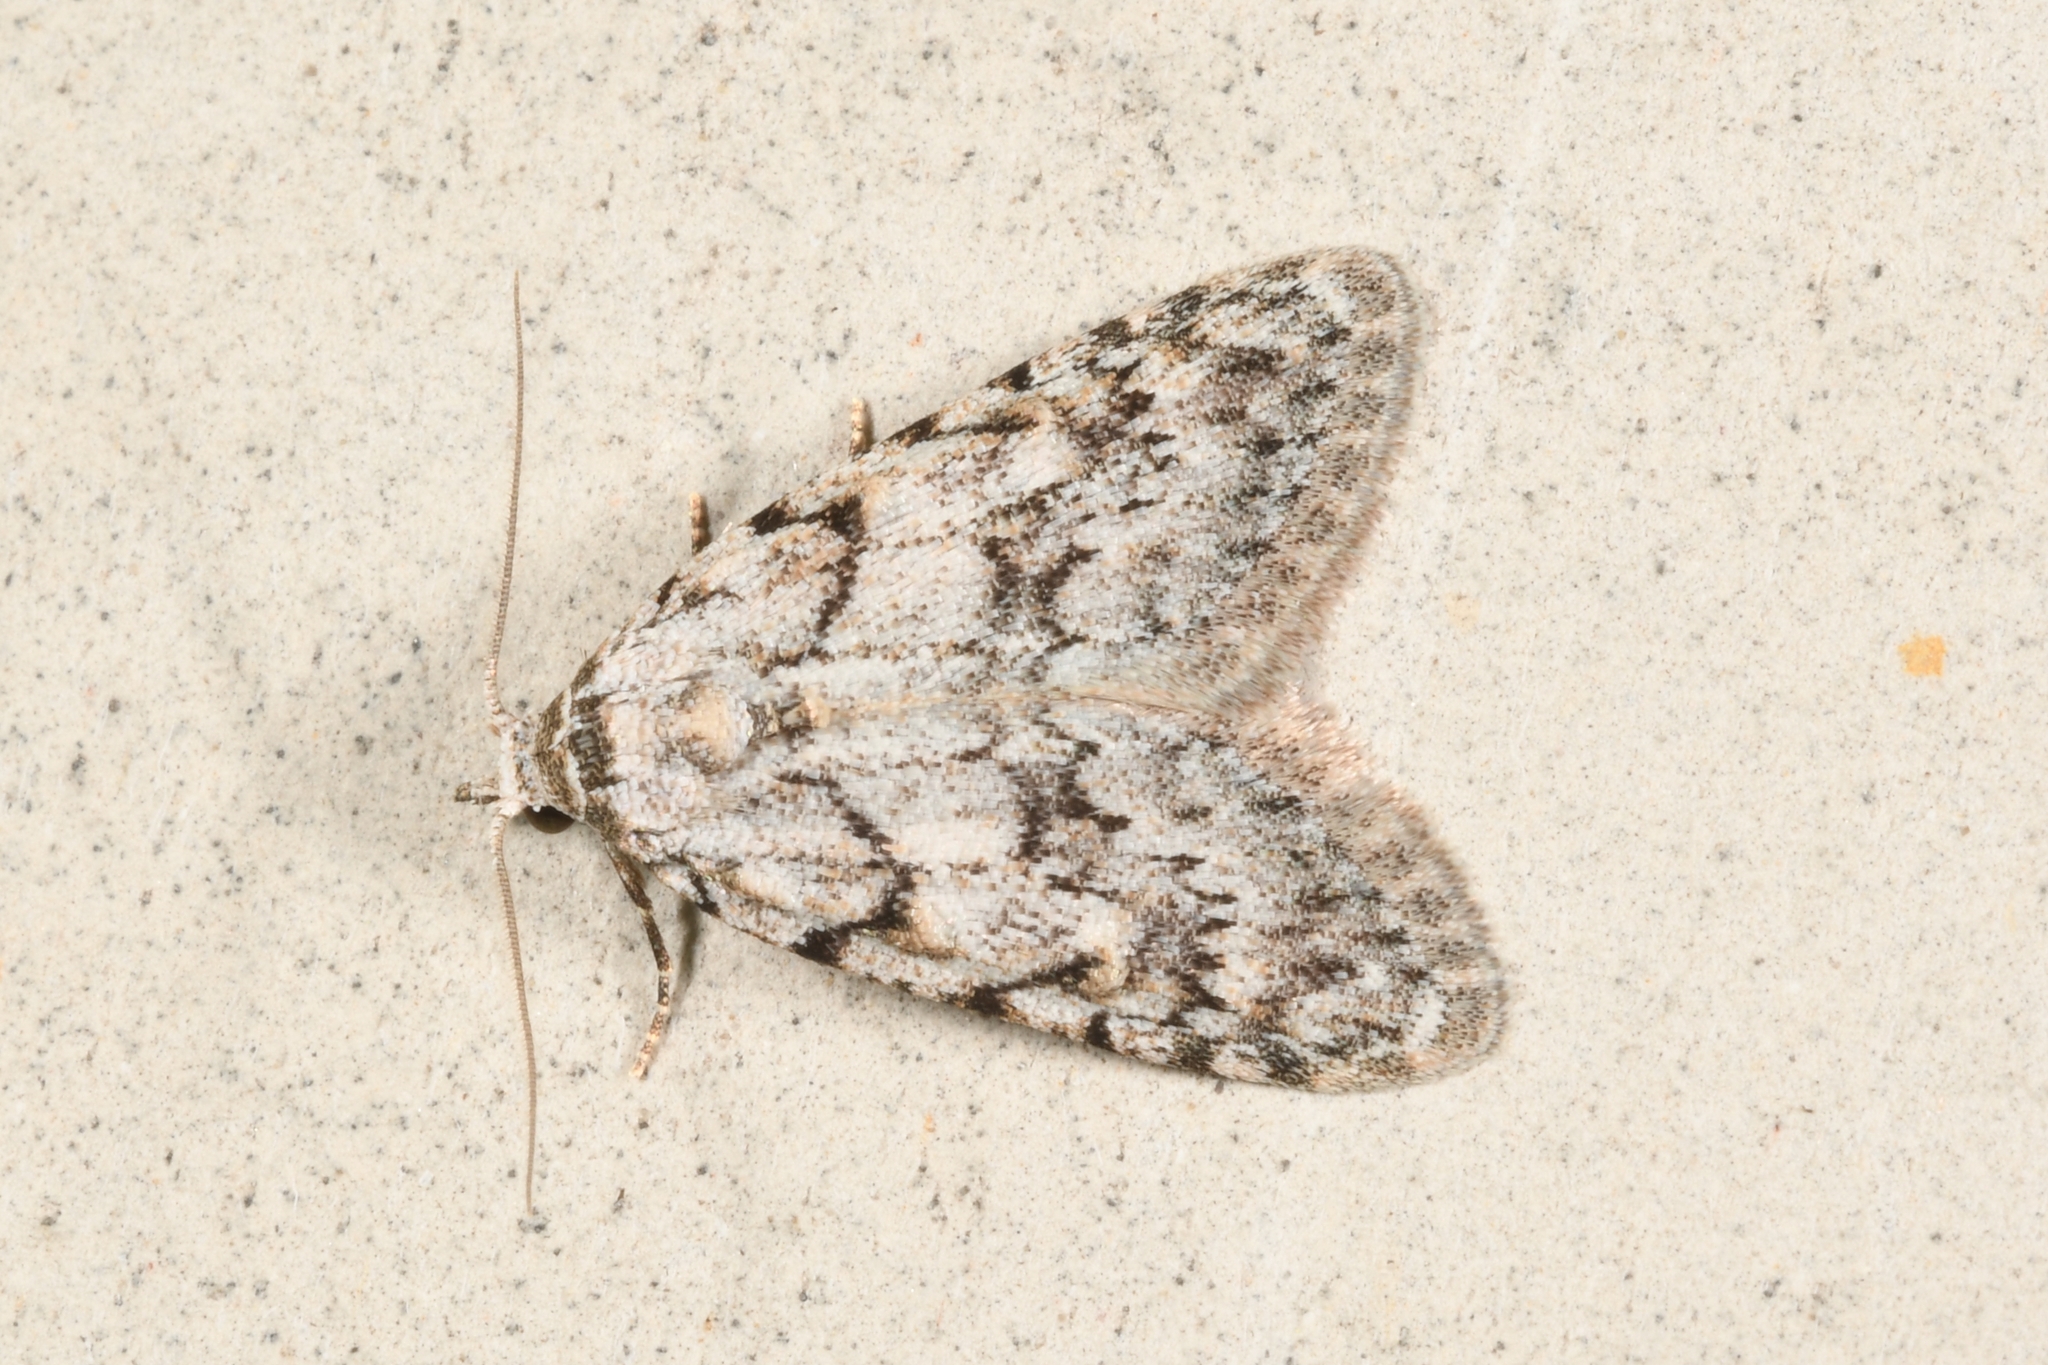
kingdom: Animalia
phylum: Arthropoda
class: Insecta
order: Lepidoptera
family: Nolidae
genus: Nola
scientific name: Nola cicatricalis
